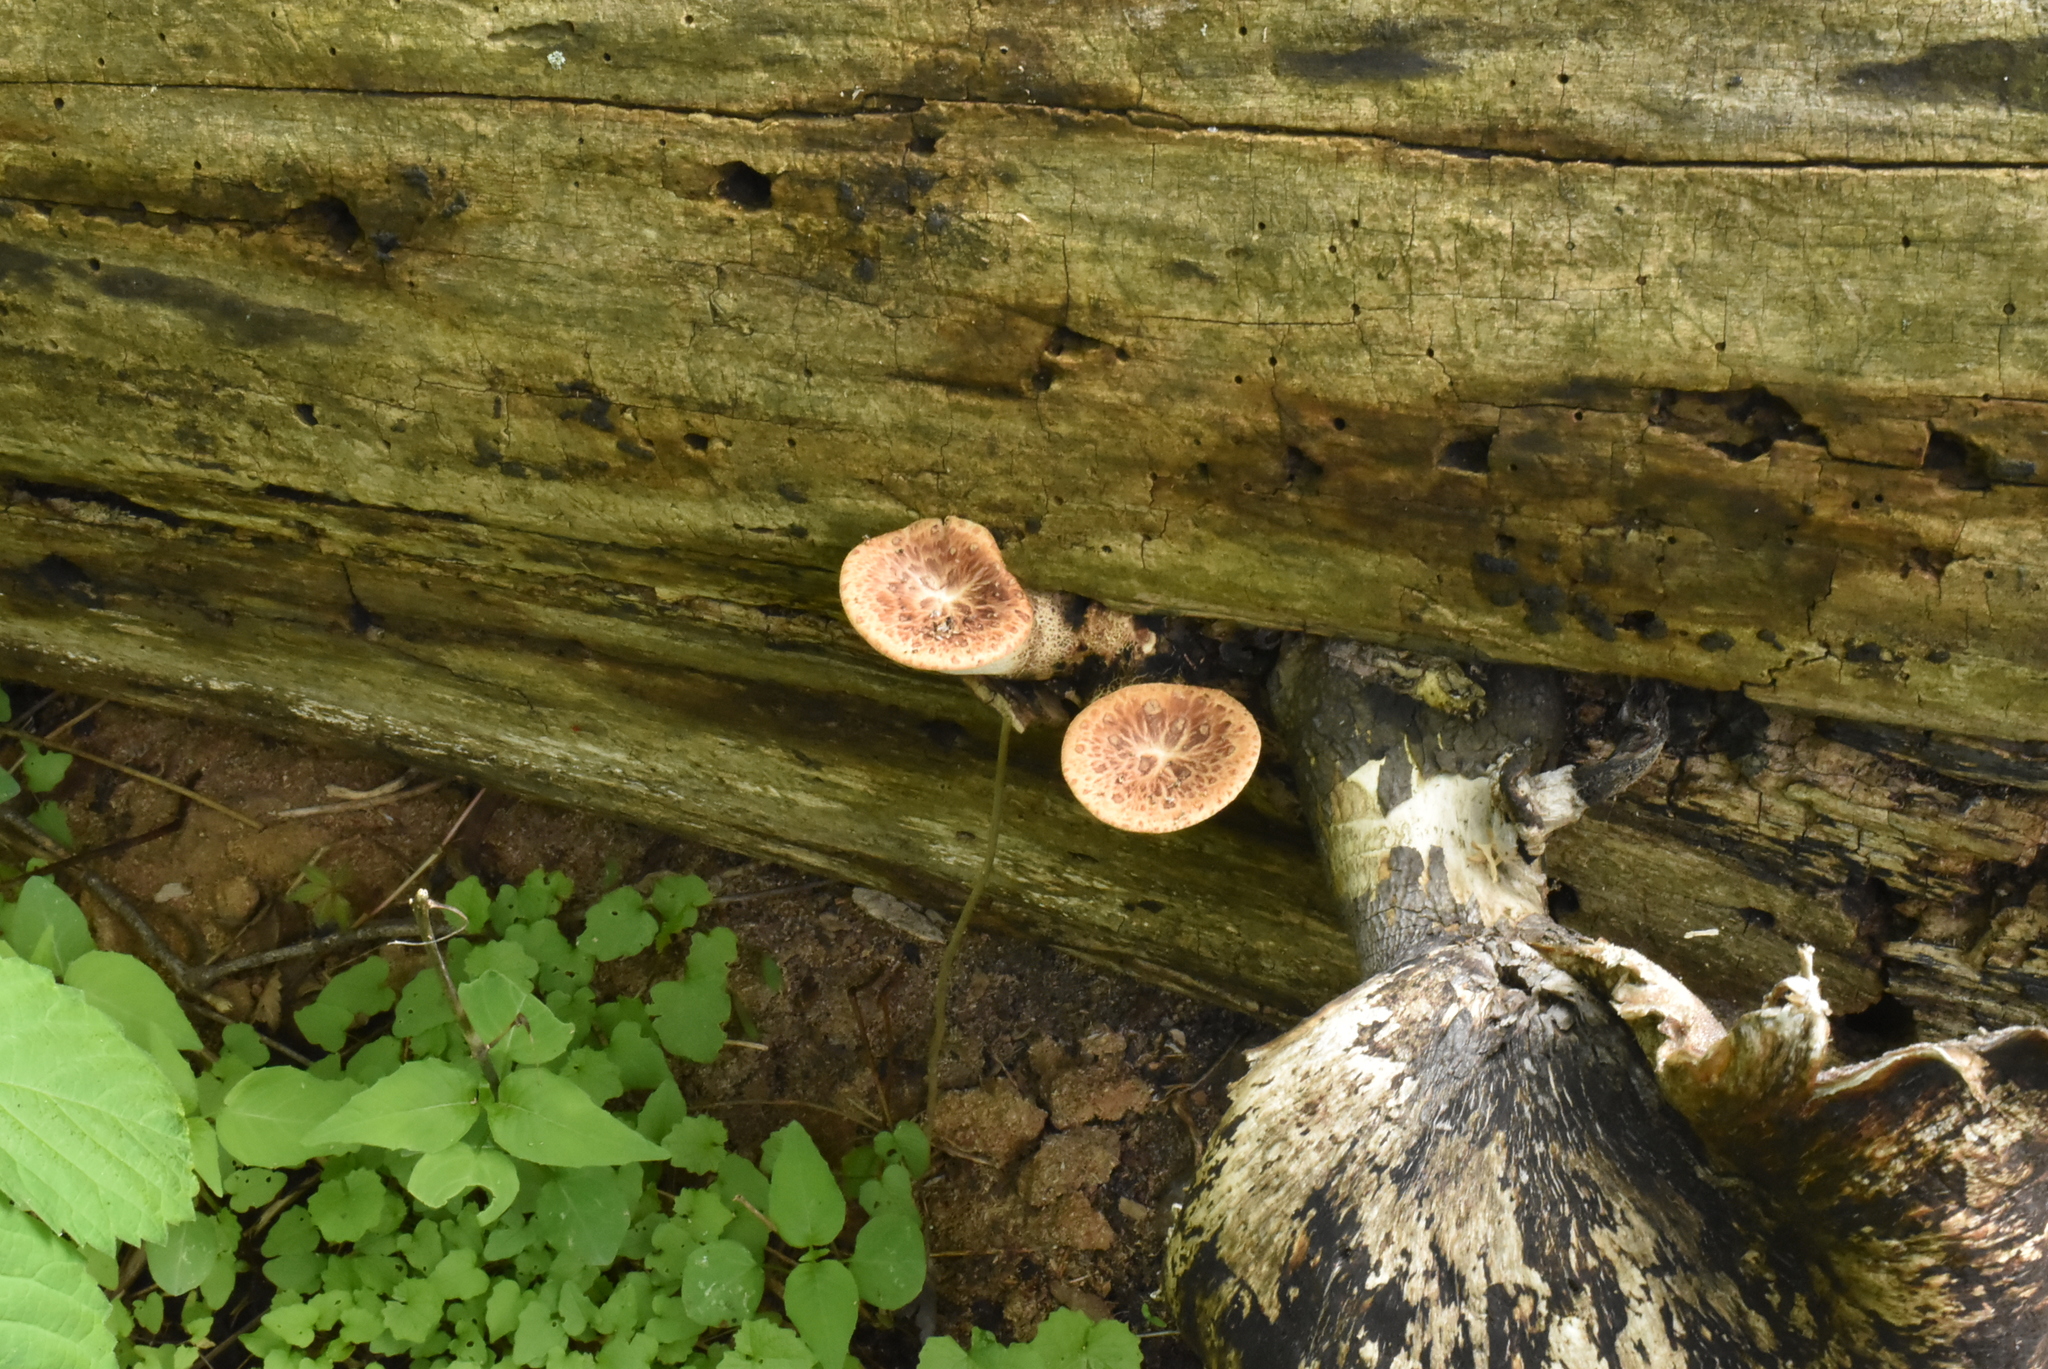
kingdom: Fungi
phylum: Basidiomycota
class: Agaricomycetes
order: Polyporales
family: Polyporaceae
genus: Cerioporus
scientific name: Cerioporus squamosus
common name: Dryad's saddle
